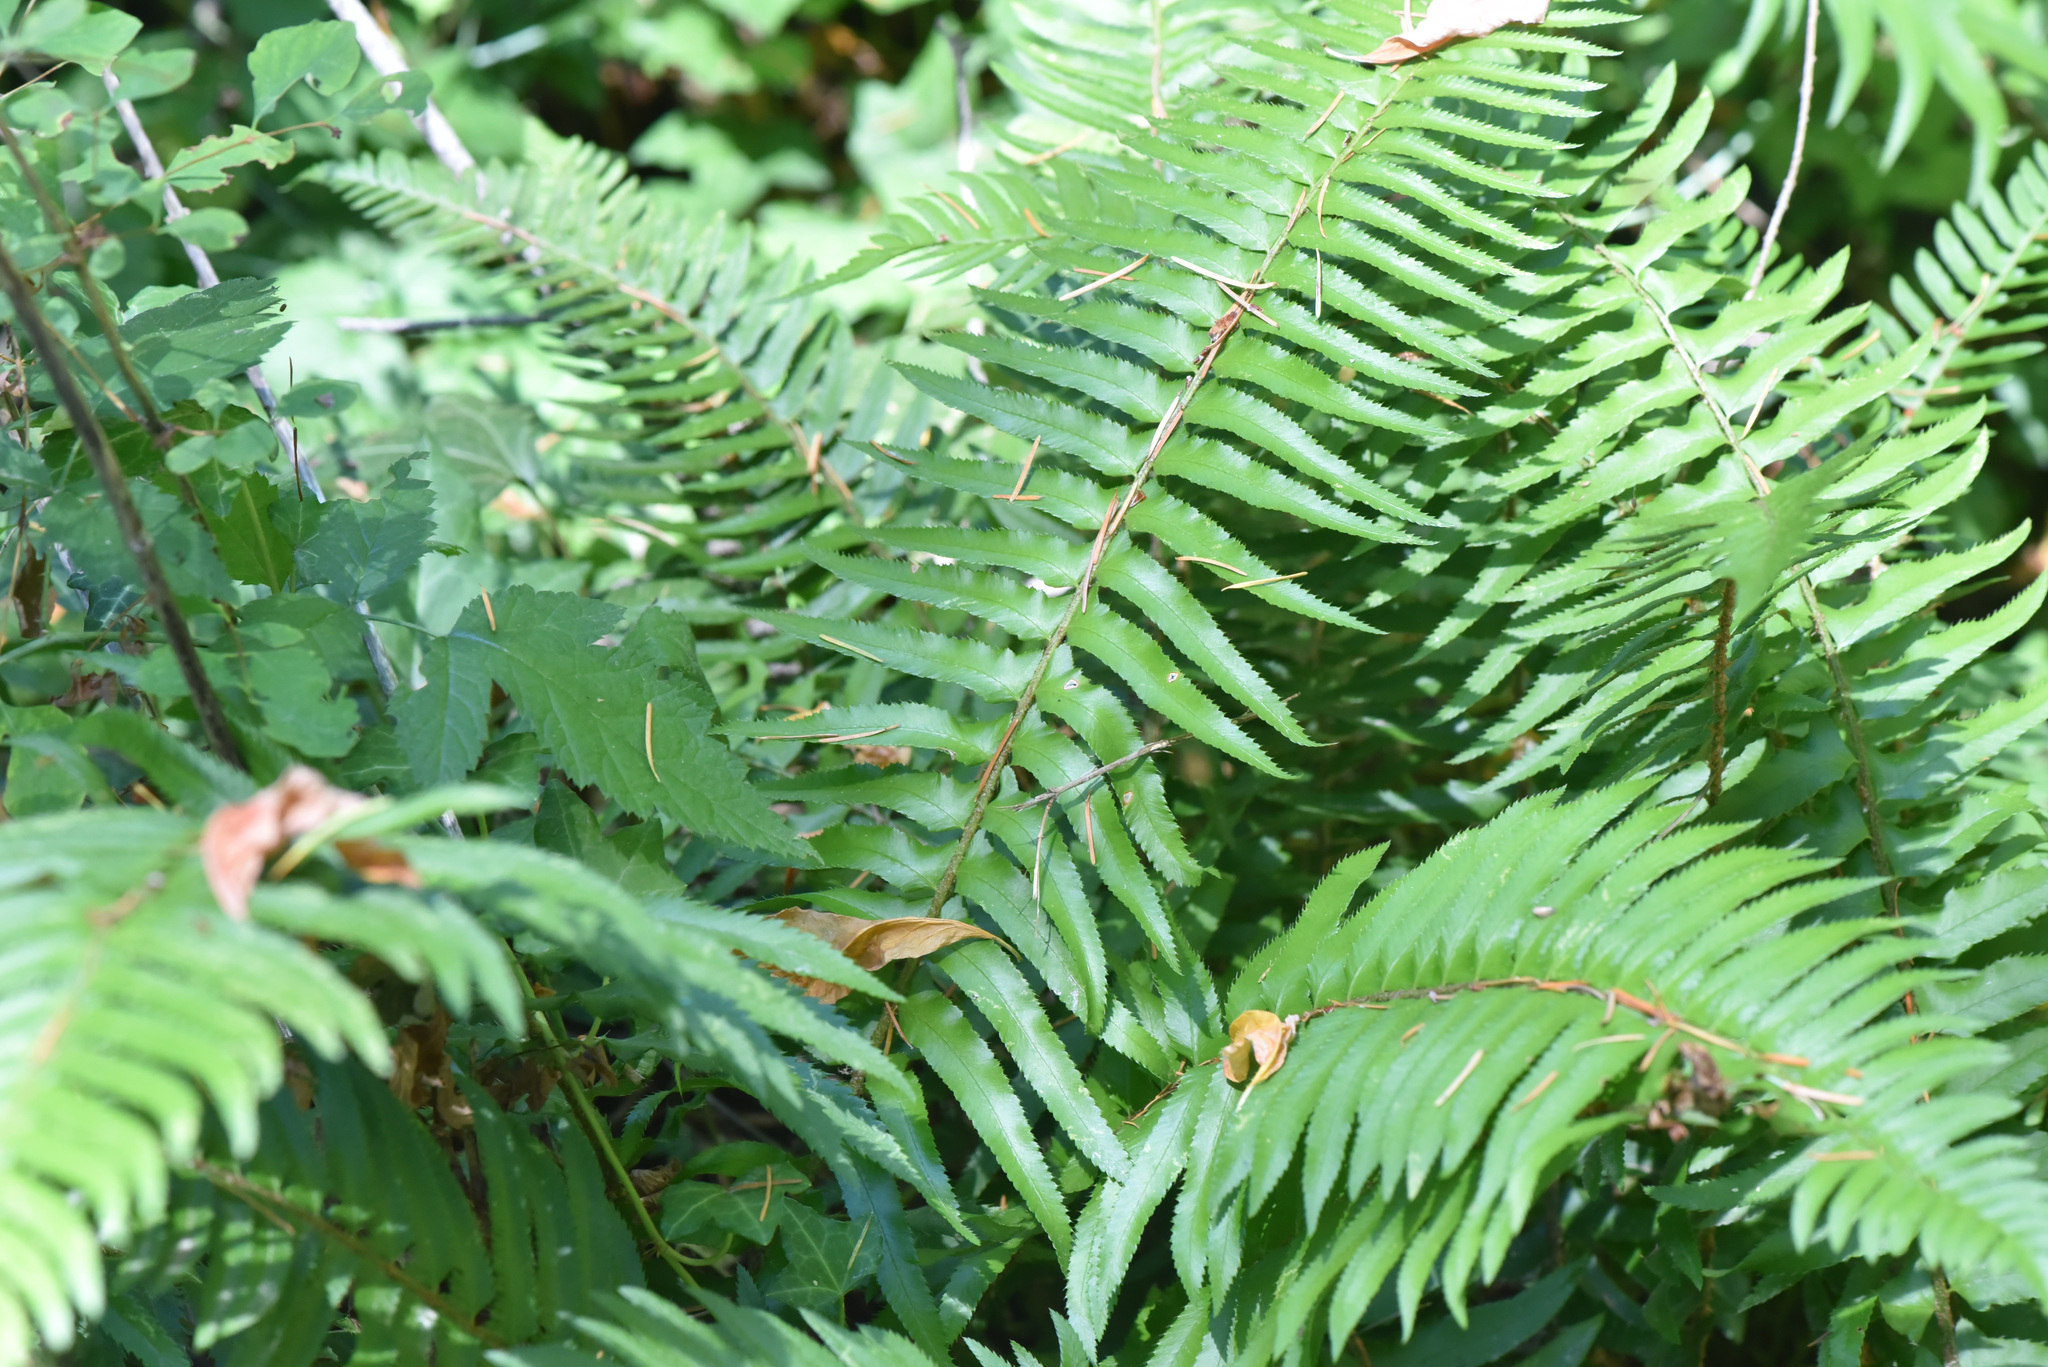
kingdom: Plantae
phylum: Tracheophyta
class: Polypodiopsida
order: Polypodiales
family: Dryopteridaceae
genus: Polystichum
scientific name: Polystichum munitum
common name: Western sword-fern
